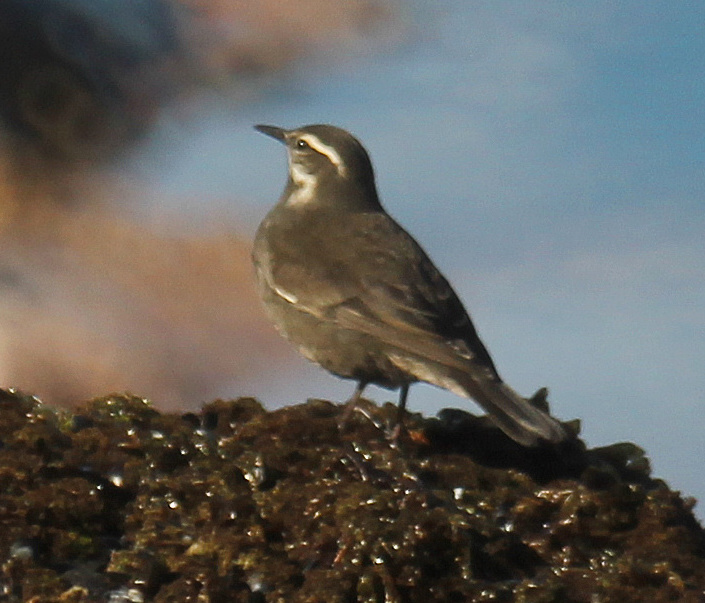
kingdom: Animalia
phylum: Chordata
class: Aves
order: Passeriformes
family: Furnariidae
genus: Cinclodes
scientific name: Cinclodes patagonicus
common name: Dark-bellied cinclodes
